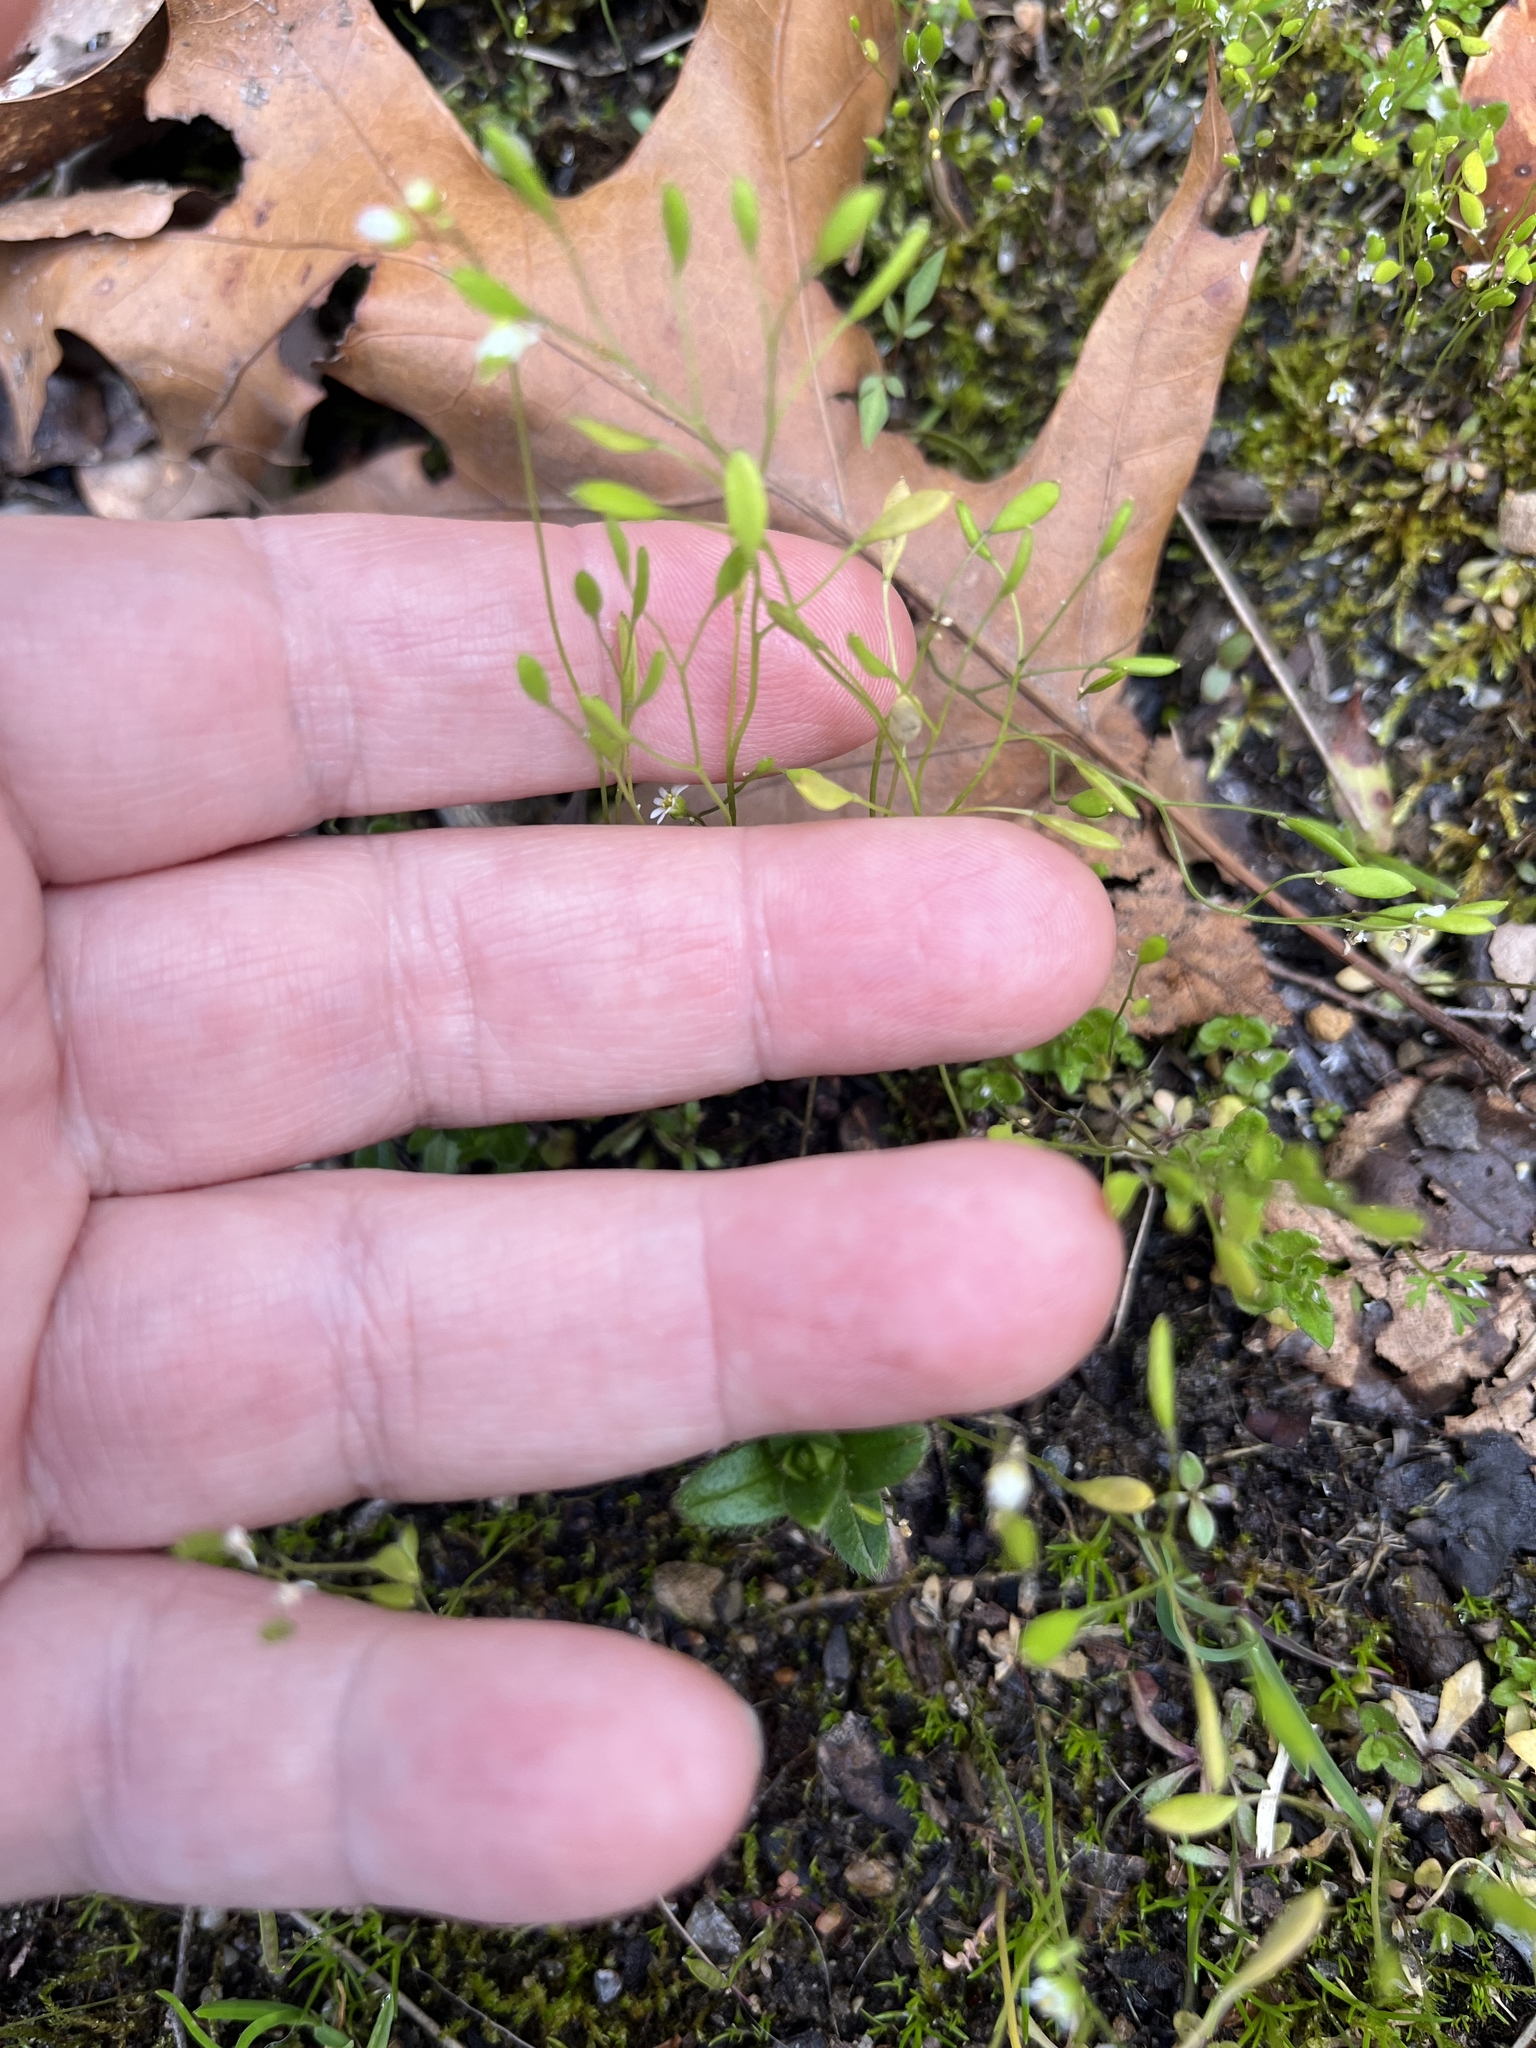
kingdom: Plantae
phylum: Tracheophyta
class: Magnoliopsida
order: Brassicales
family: Brassicaceae
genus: Draba
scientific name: Draba verna
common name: Spring draba
